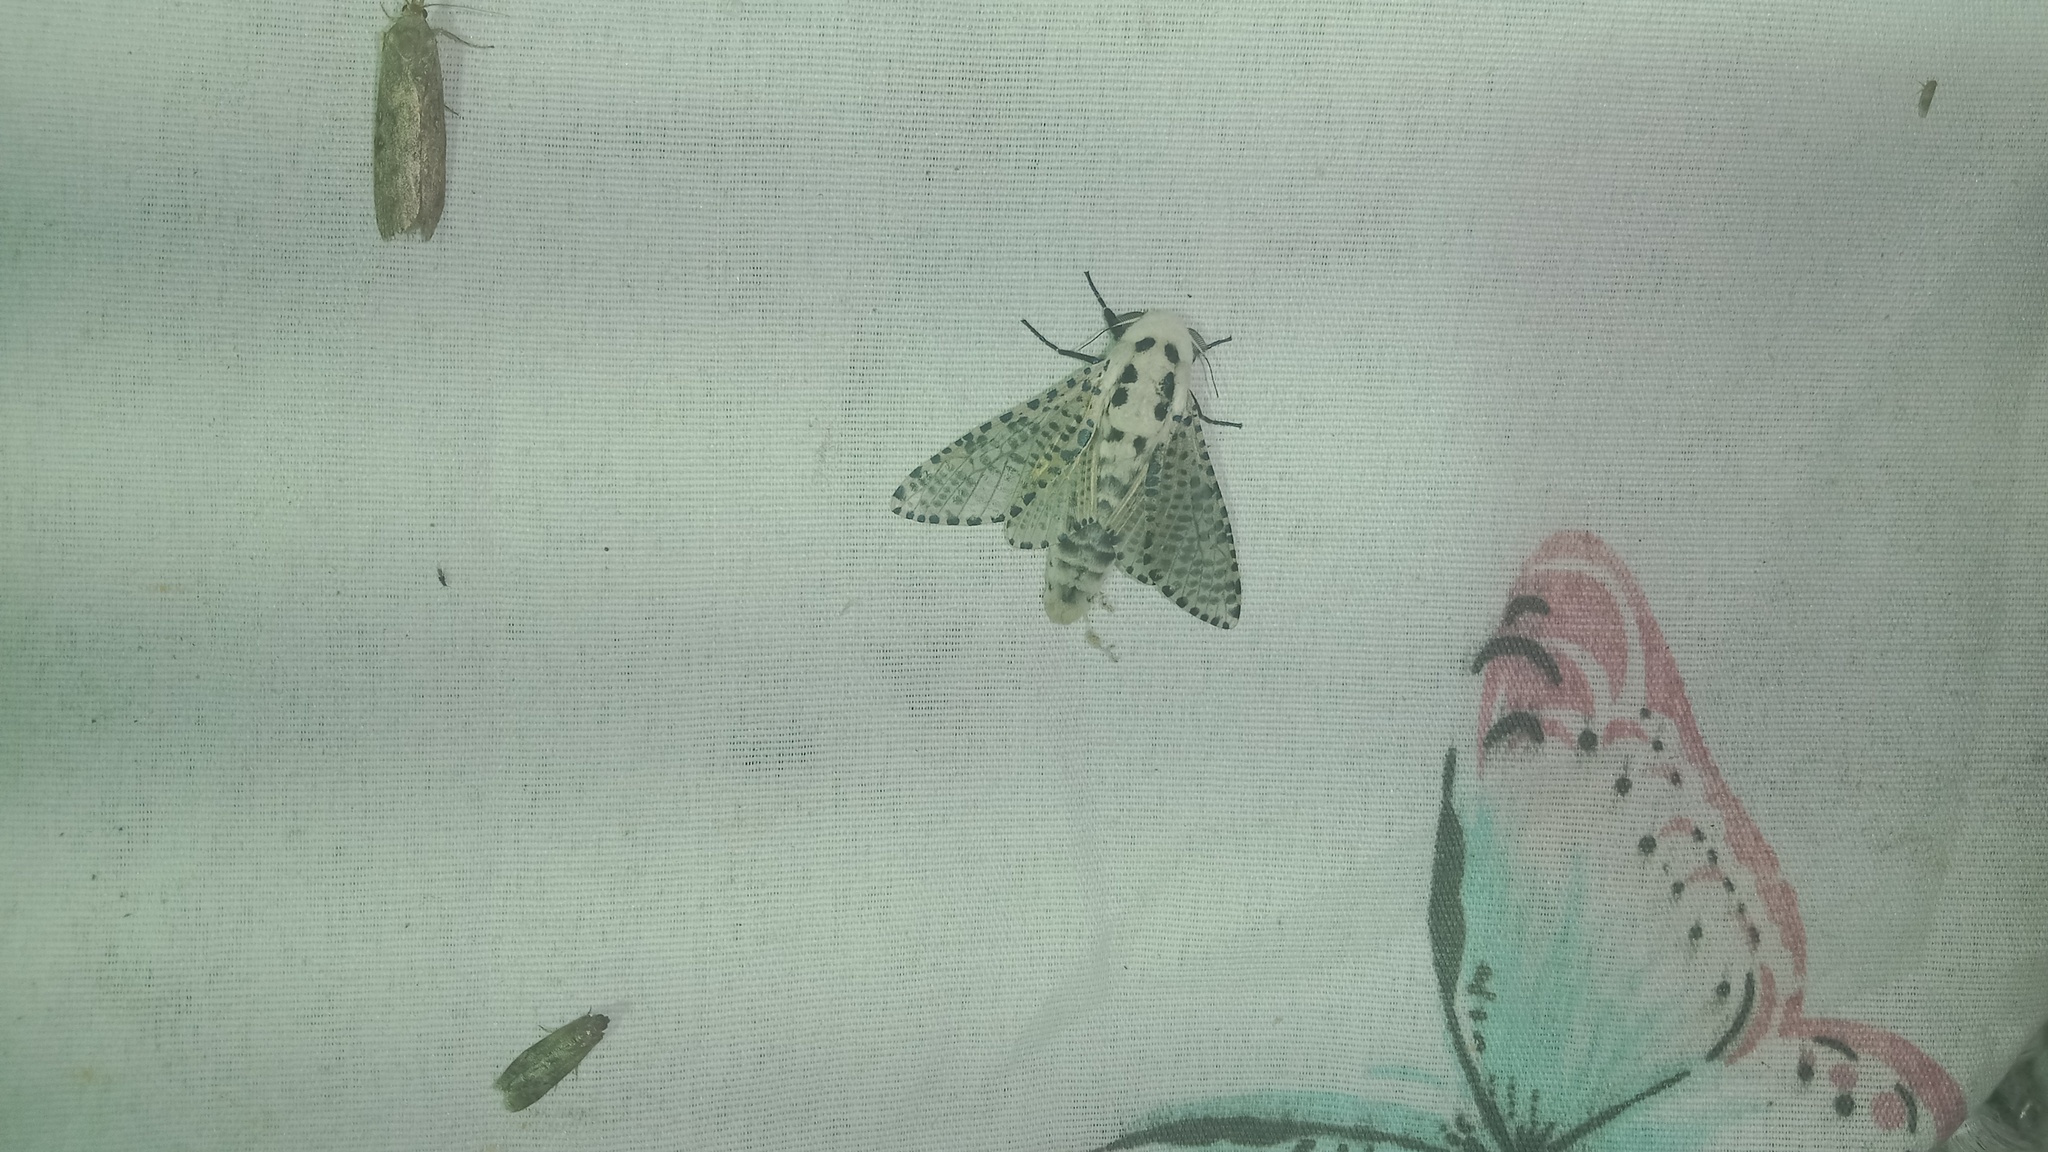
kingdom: Animalia
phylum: Arthropoda
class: Insecta
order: Lepidoptera
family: Cossidae
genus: Zeuzera
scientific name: Zeuzera pyrina
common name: Leopard moth
